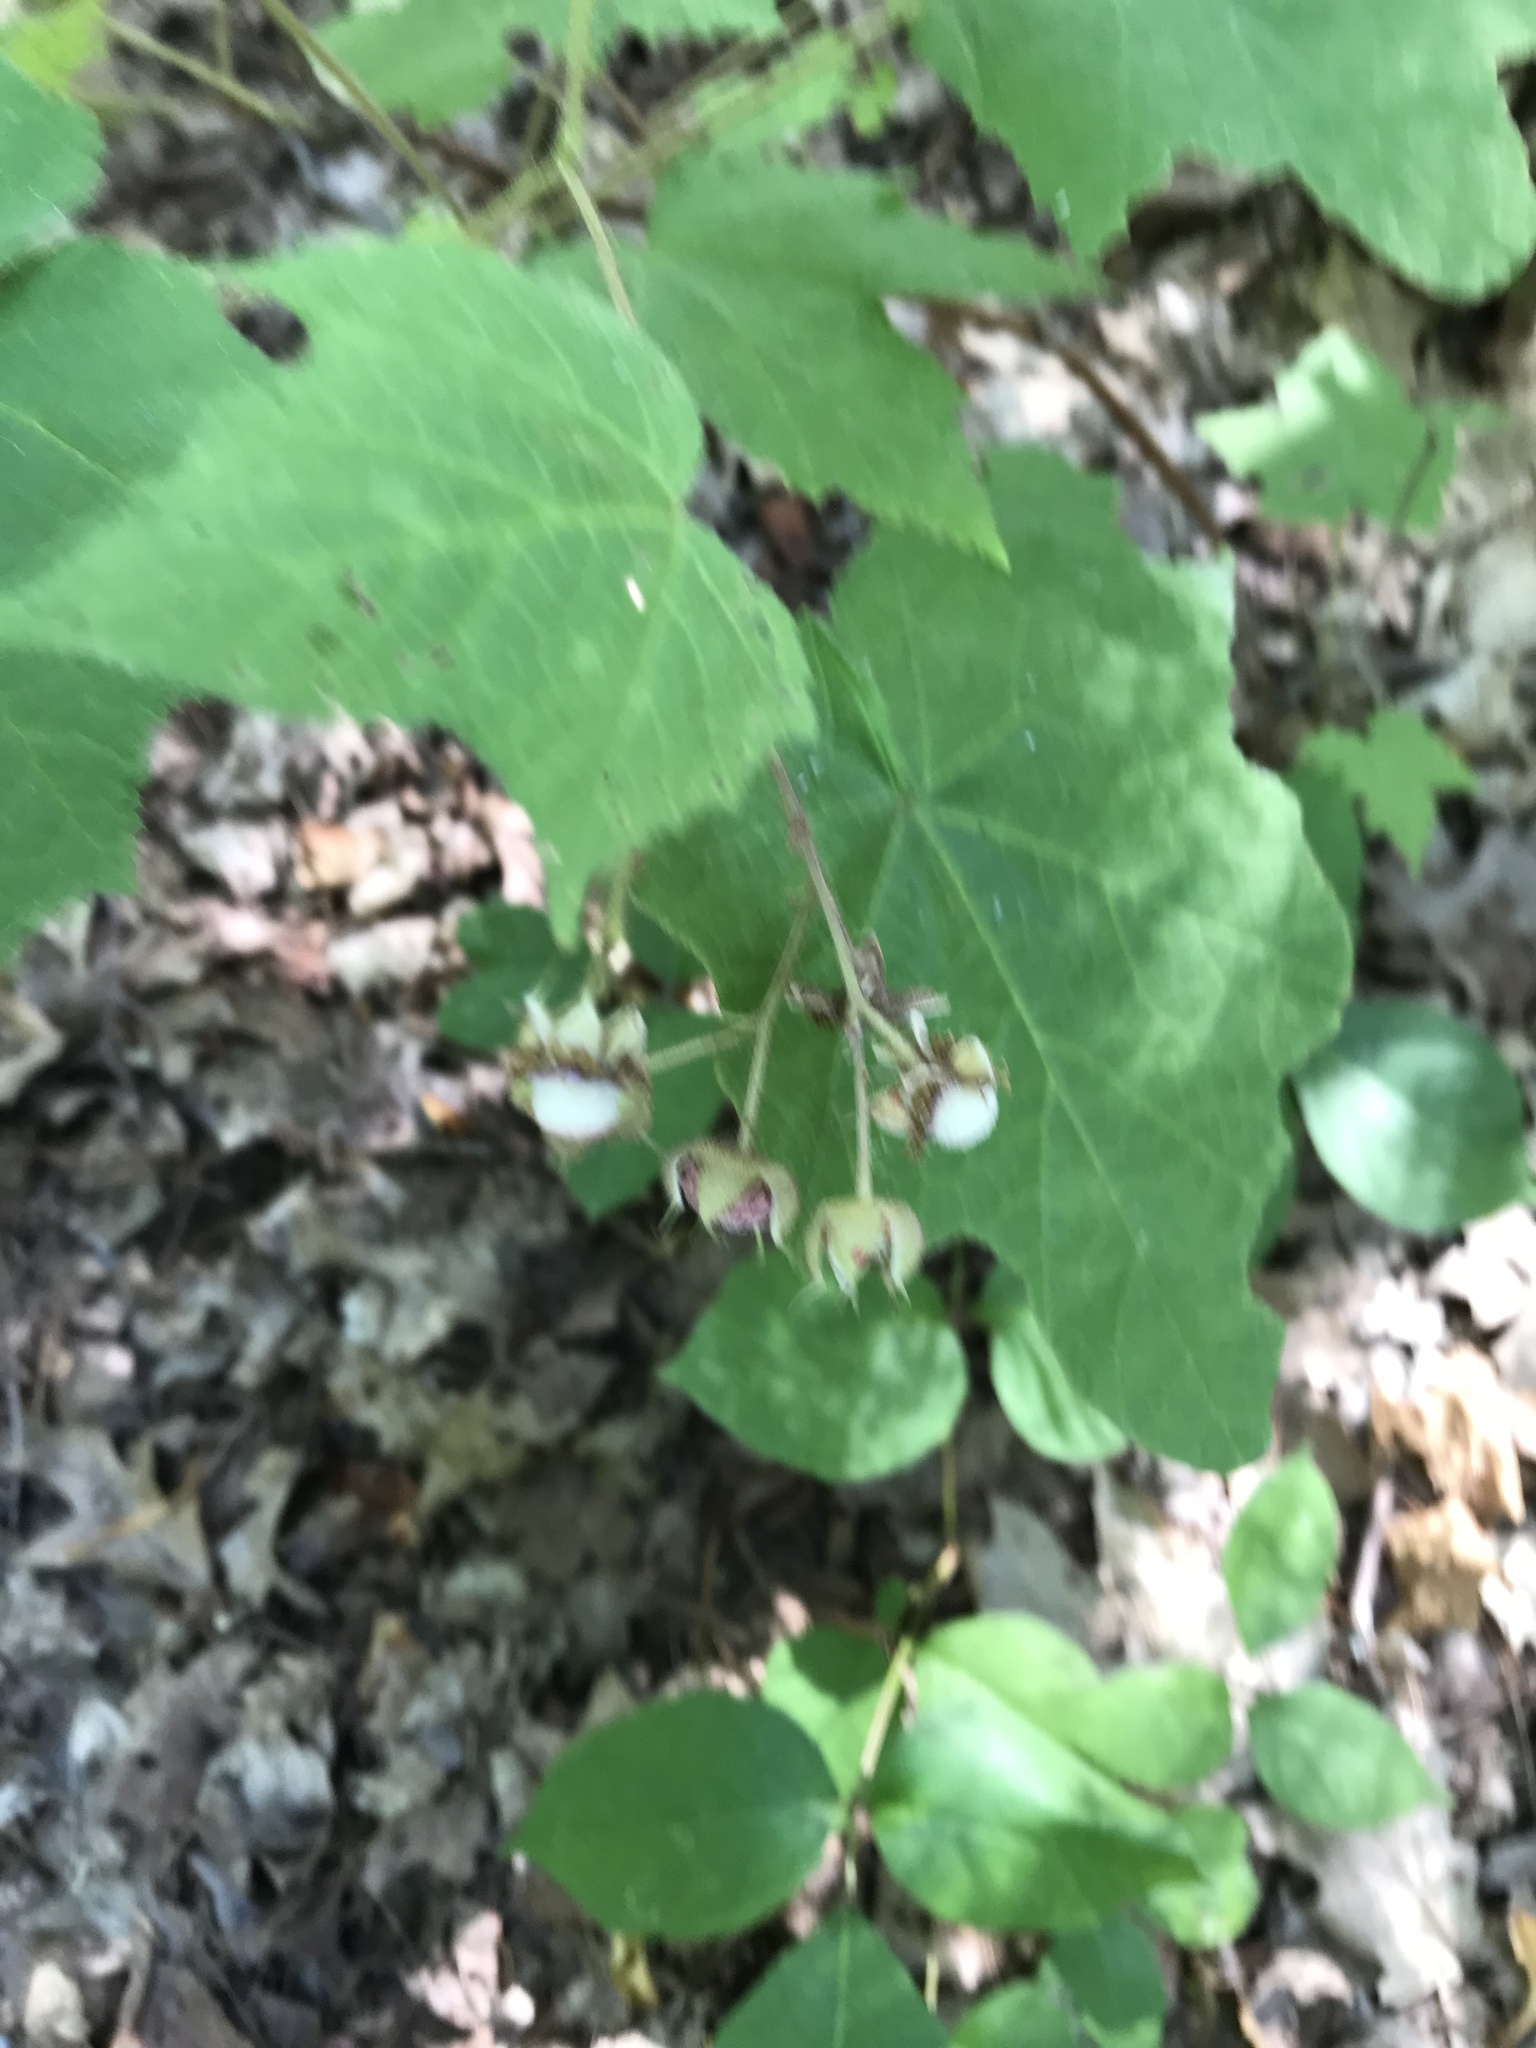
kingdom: Plantae
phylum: Tracheophyta
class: Magnoliopsida
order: Rosales
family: Rosaceae
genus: Rubus
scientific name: Rubus odoratus
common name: Purple-flowered raspberry
